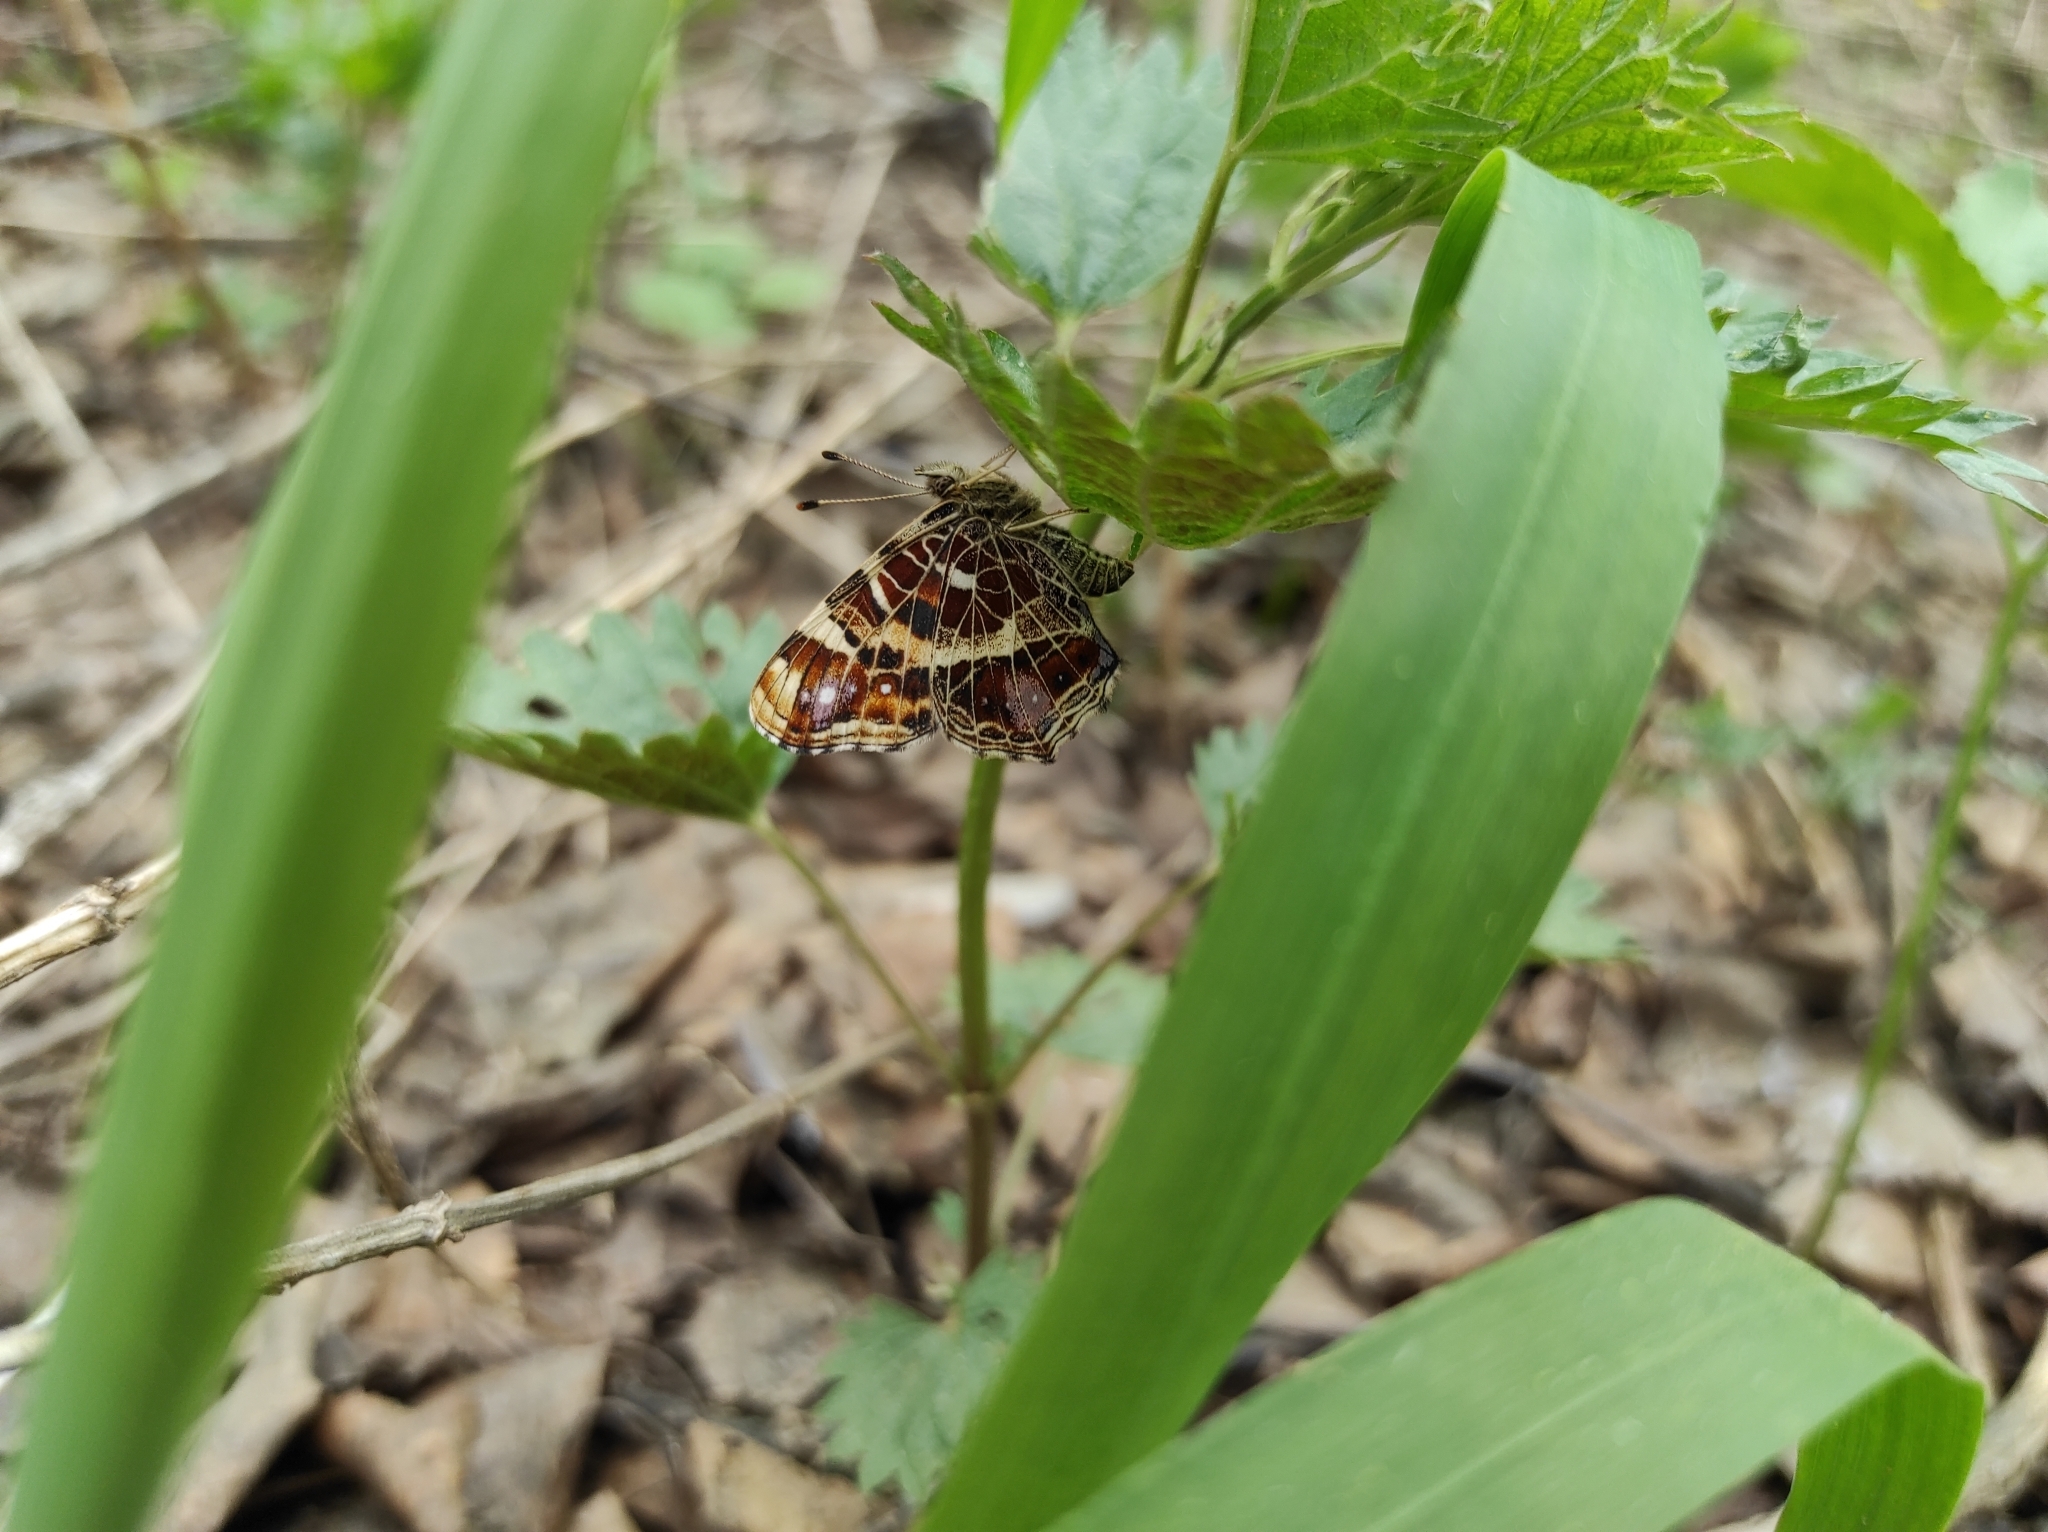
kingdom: Animalia
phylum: Arthropoda
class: Insecta
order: Lepidoptera
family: Nymphalidae
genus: Araschnia
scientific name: Araschnia levana
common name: Map butterfly
